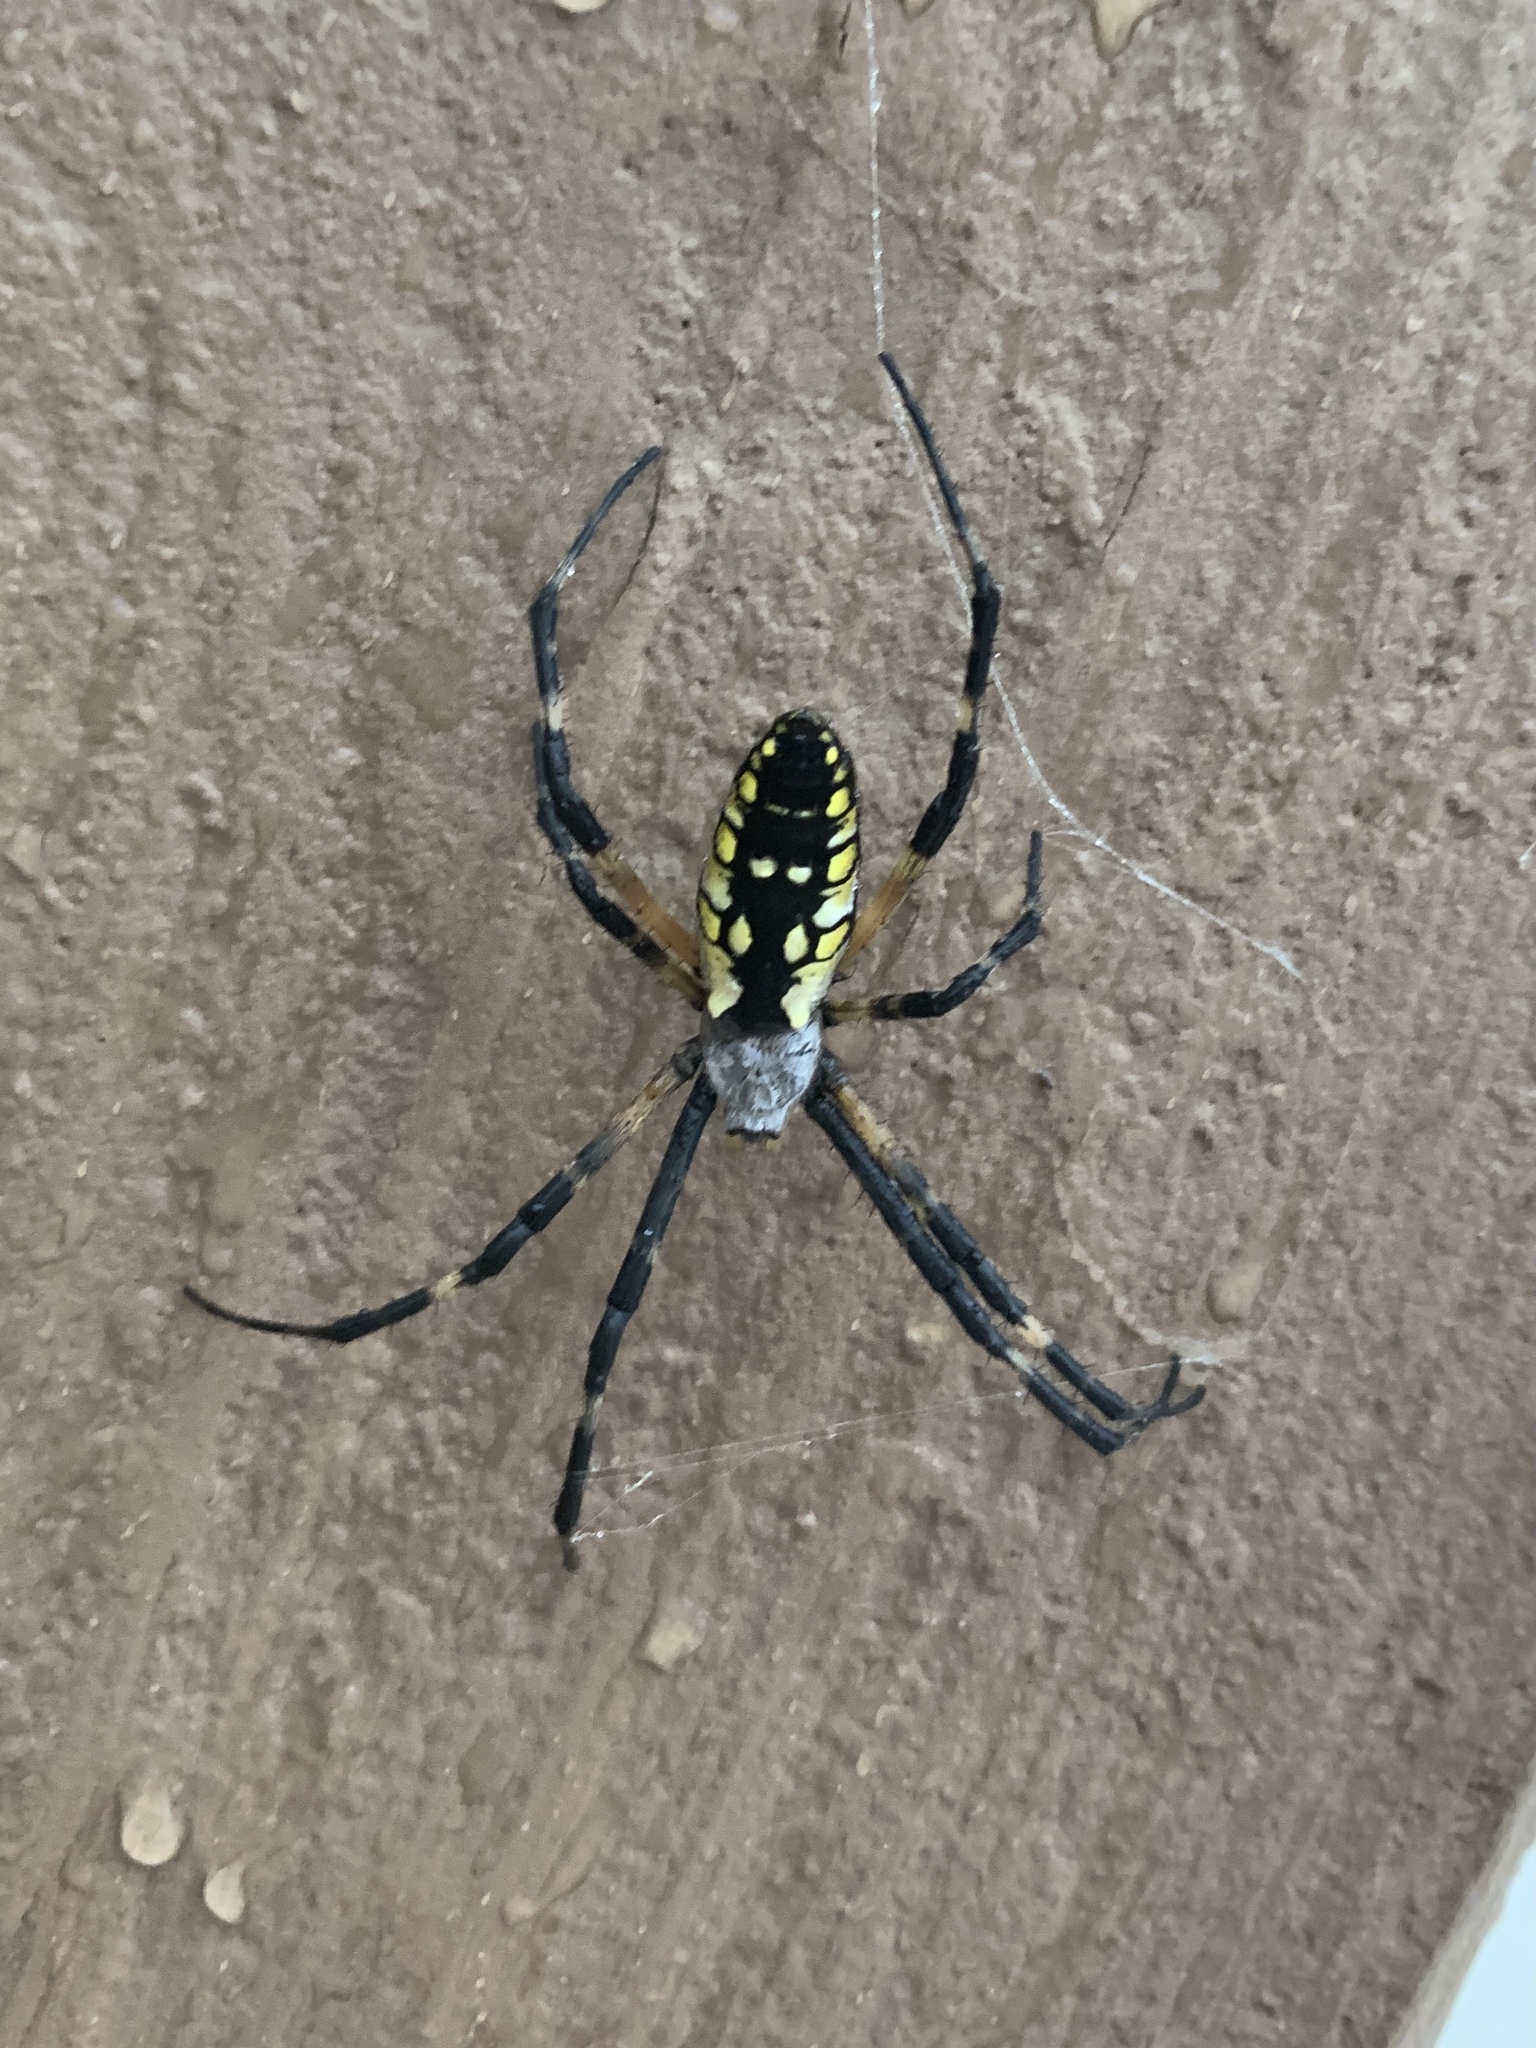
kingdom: Animalia
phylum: Arthropoda
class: Arachnida
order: Araneae
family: Araneidae
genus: Argiope
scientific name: Argiope aurantia
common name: Orb weavers
